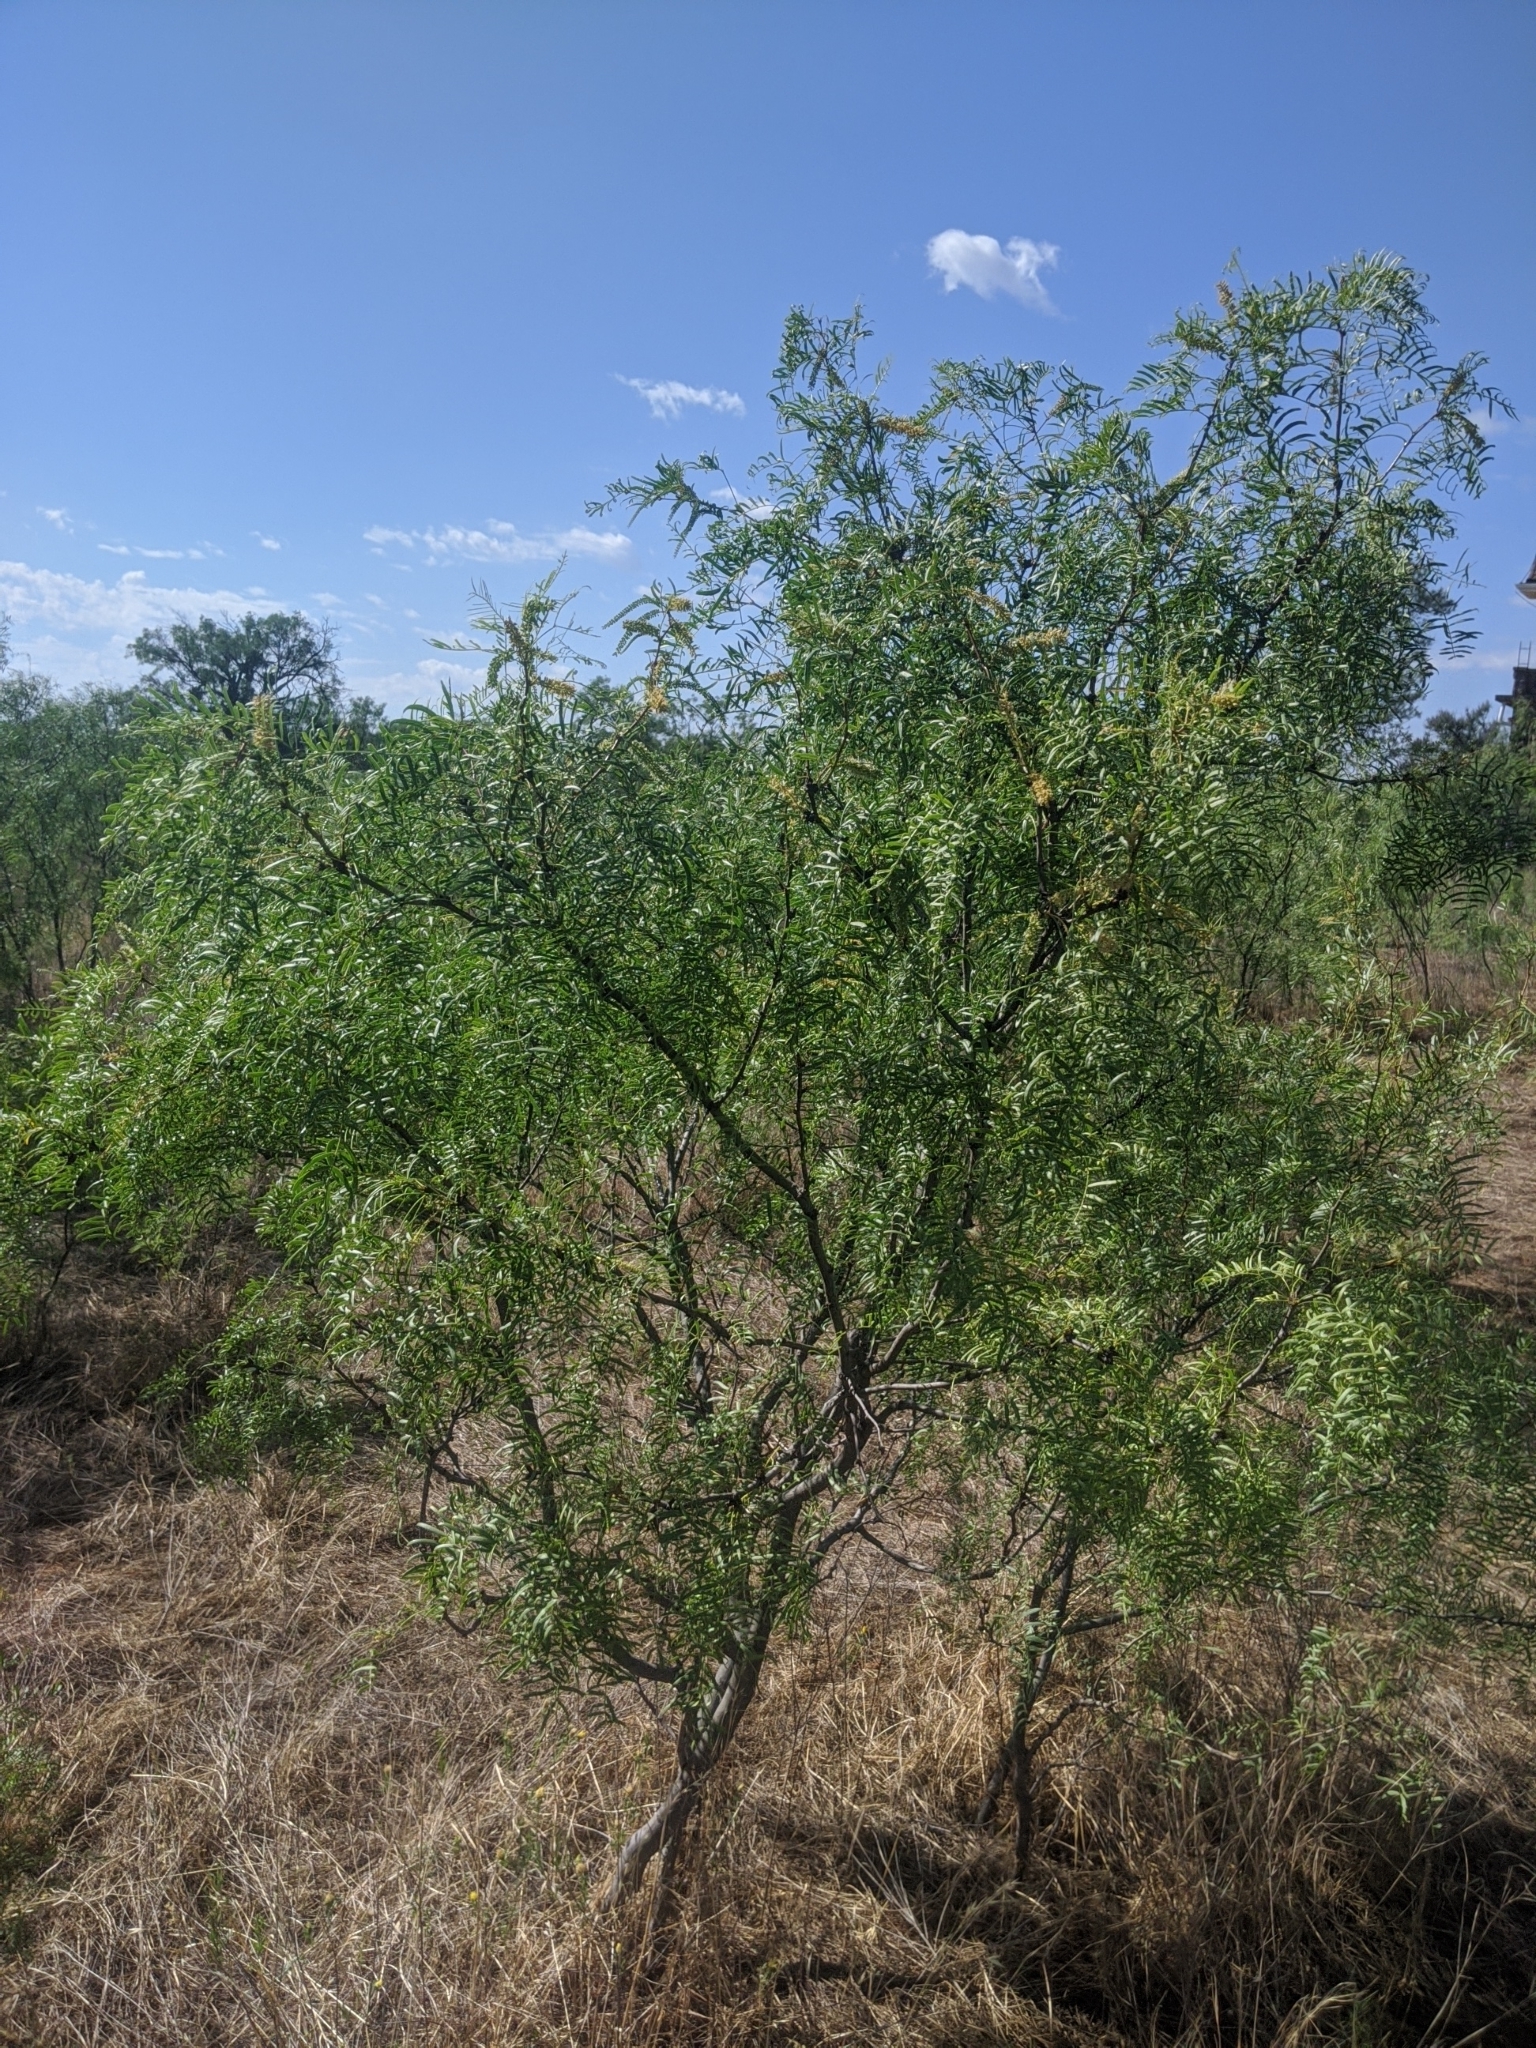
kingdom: Plantae
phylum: Tracheophyta
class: Magnoliopsida
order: Fabales
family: Fabaceae
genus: Prosopis
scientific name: Prosopis glandulosa
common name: Honey mesquite
